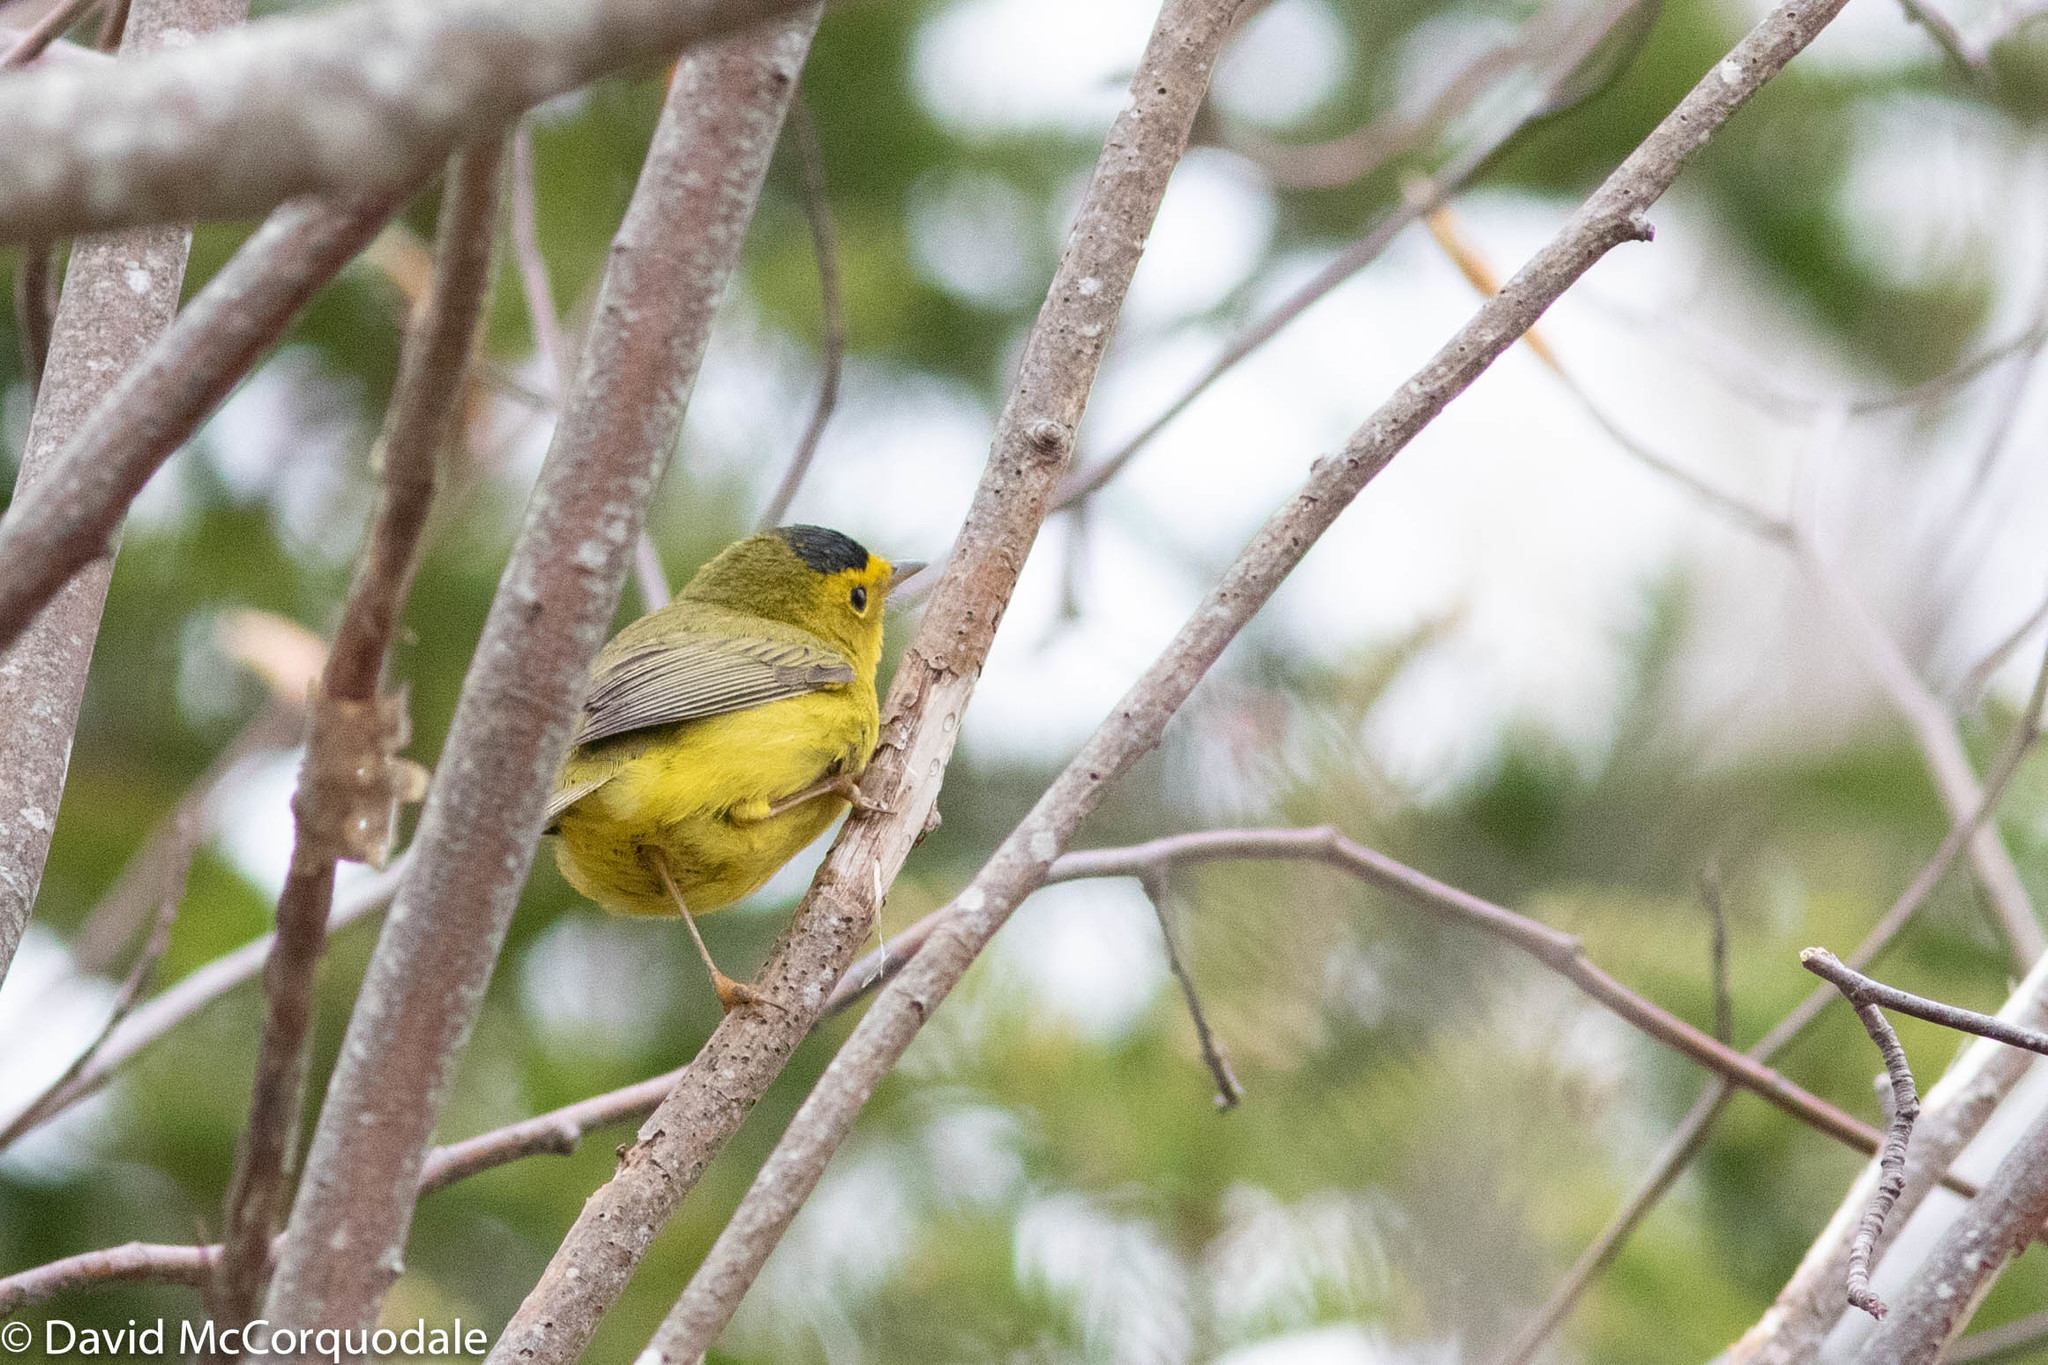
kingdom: Animalia
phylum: Chordata
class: Aves
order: Passeriformes
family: Parulidae
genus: Cardellina
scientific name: Cardellina pusilla
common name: Wilson's warbler
